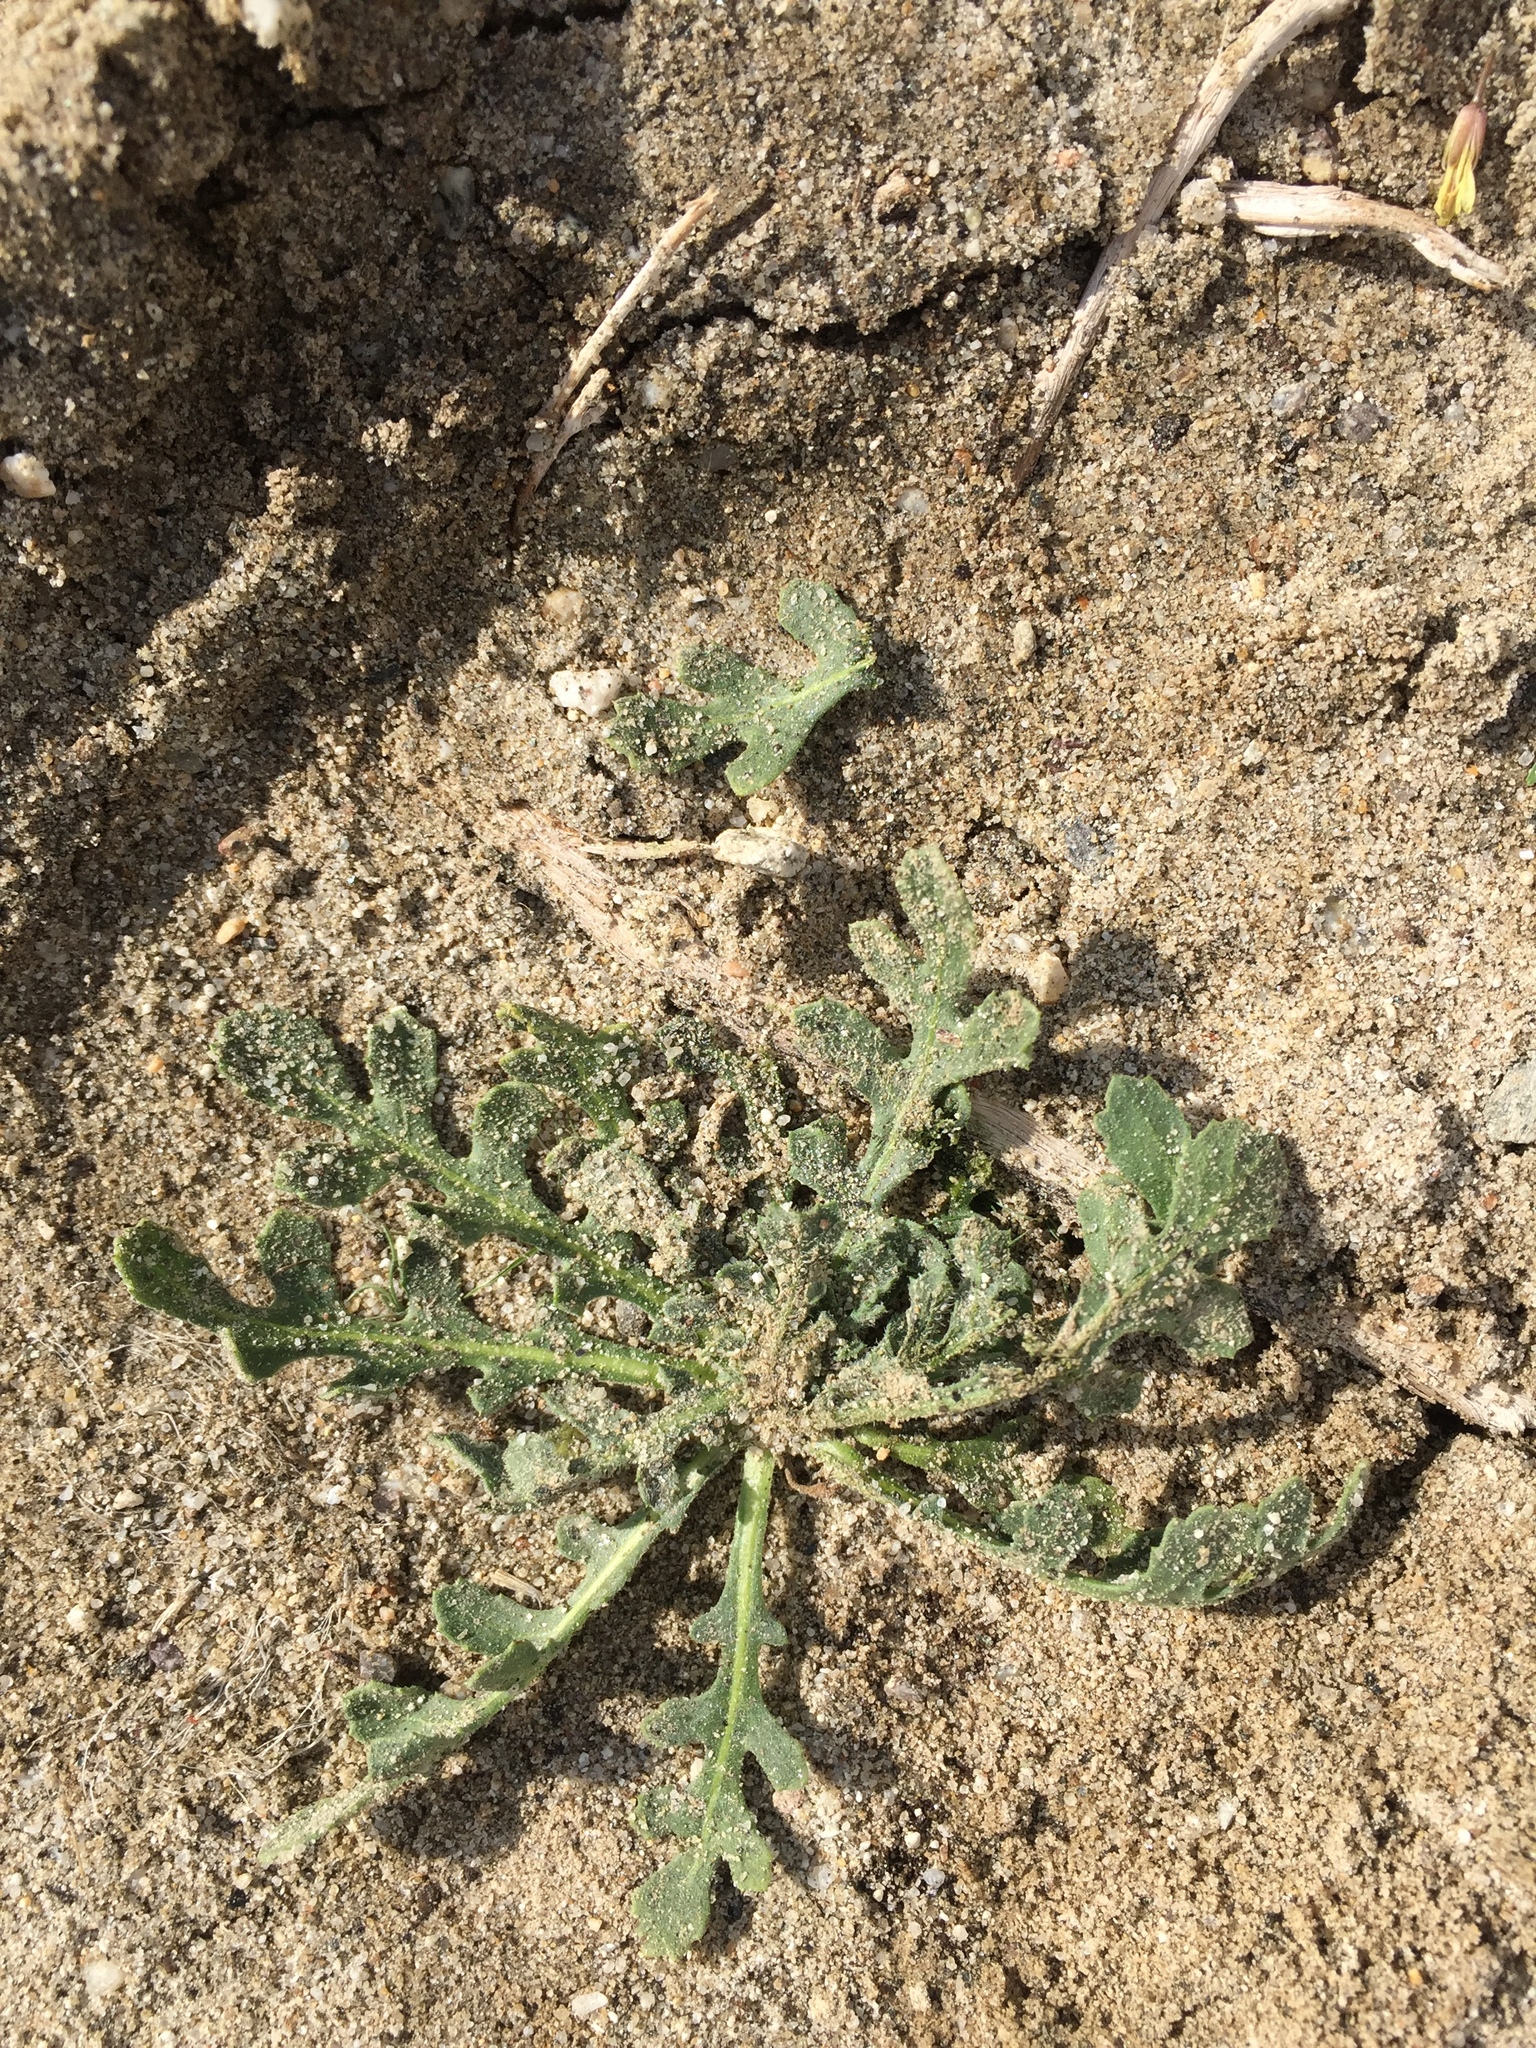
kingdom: Plantae
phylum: Tracheophyta
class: Magnoliopsida
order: Asterales
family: Asteraceae
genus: Volutaria
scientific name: Volutaria tubuliflora
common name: Desert knapweed
